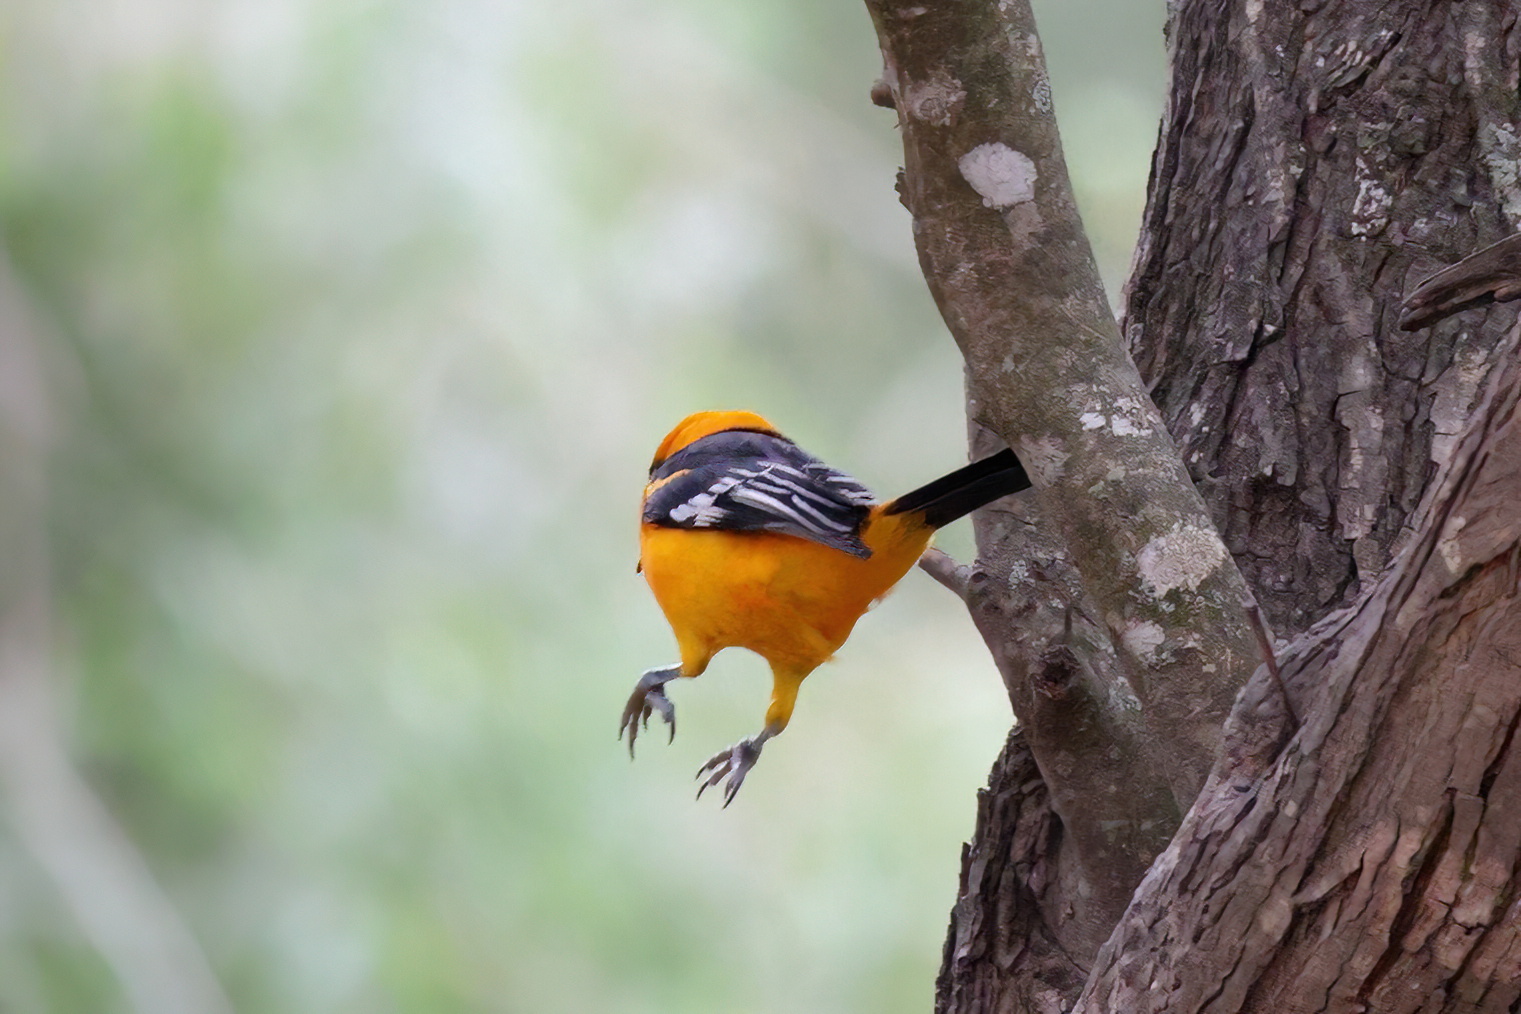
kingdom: Animalia
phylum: Chordata
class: Aves
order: Passeriformes
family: Icteridae
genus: Icterus
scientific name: Icterus gularis
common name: Altamira oriole
